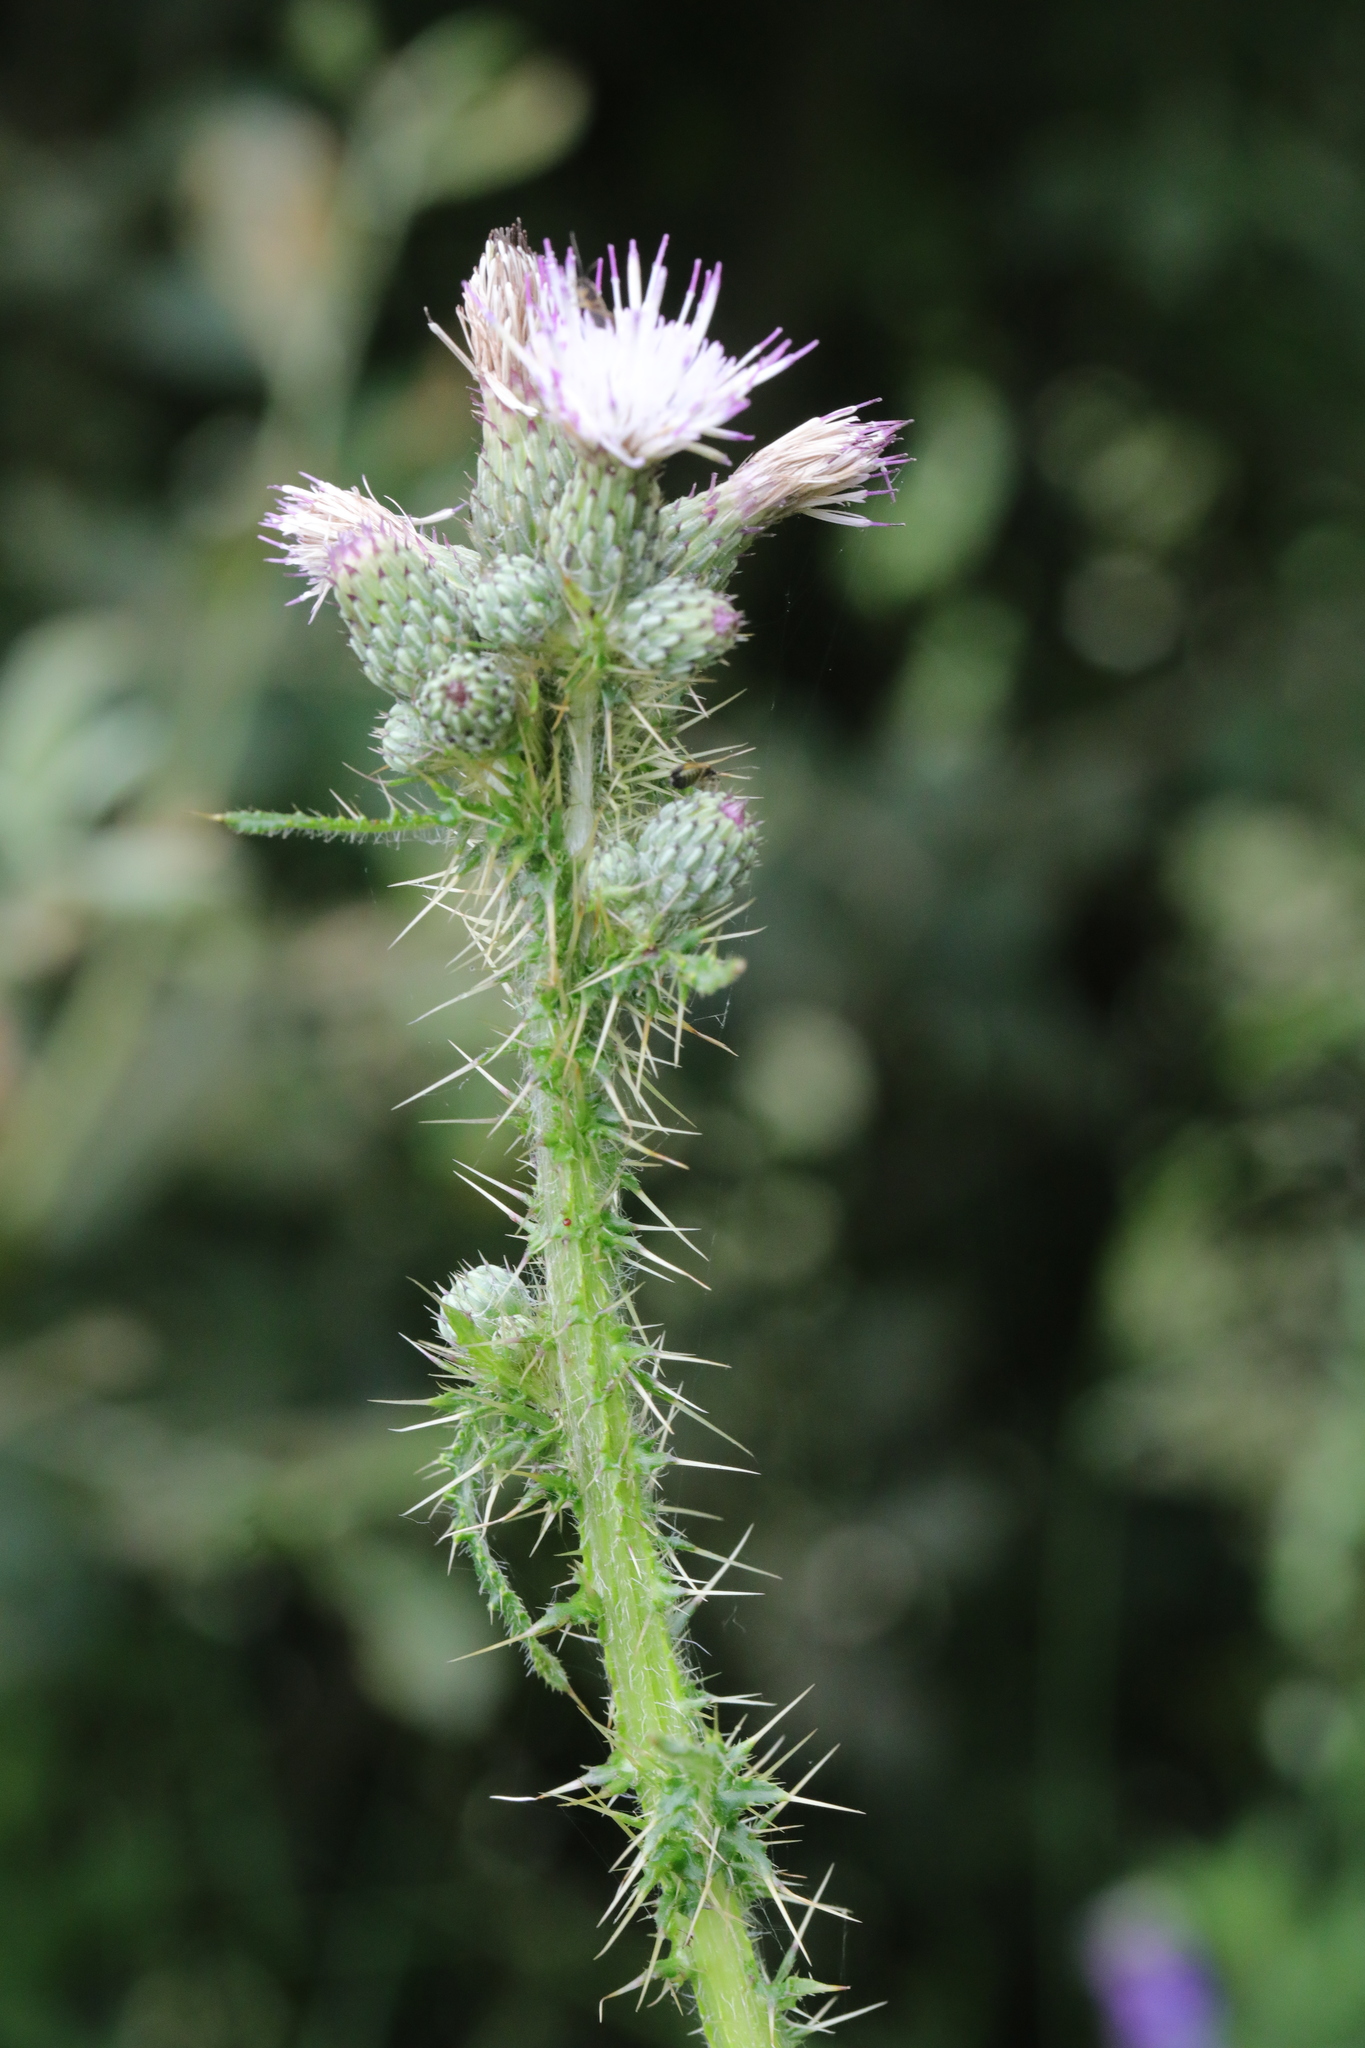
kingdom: Plantae
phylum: Tracheophyta
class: Magnoliopsida
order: Asterales
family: Asteraceae
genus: Cirsium
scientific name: Cirsium palustre
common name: Marsh thistle
